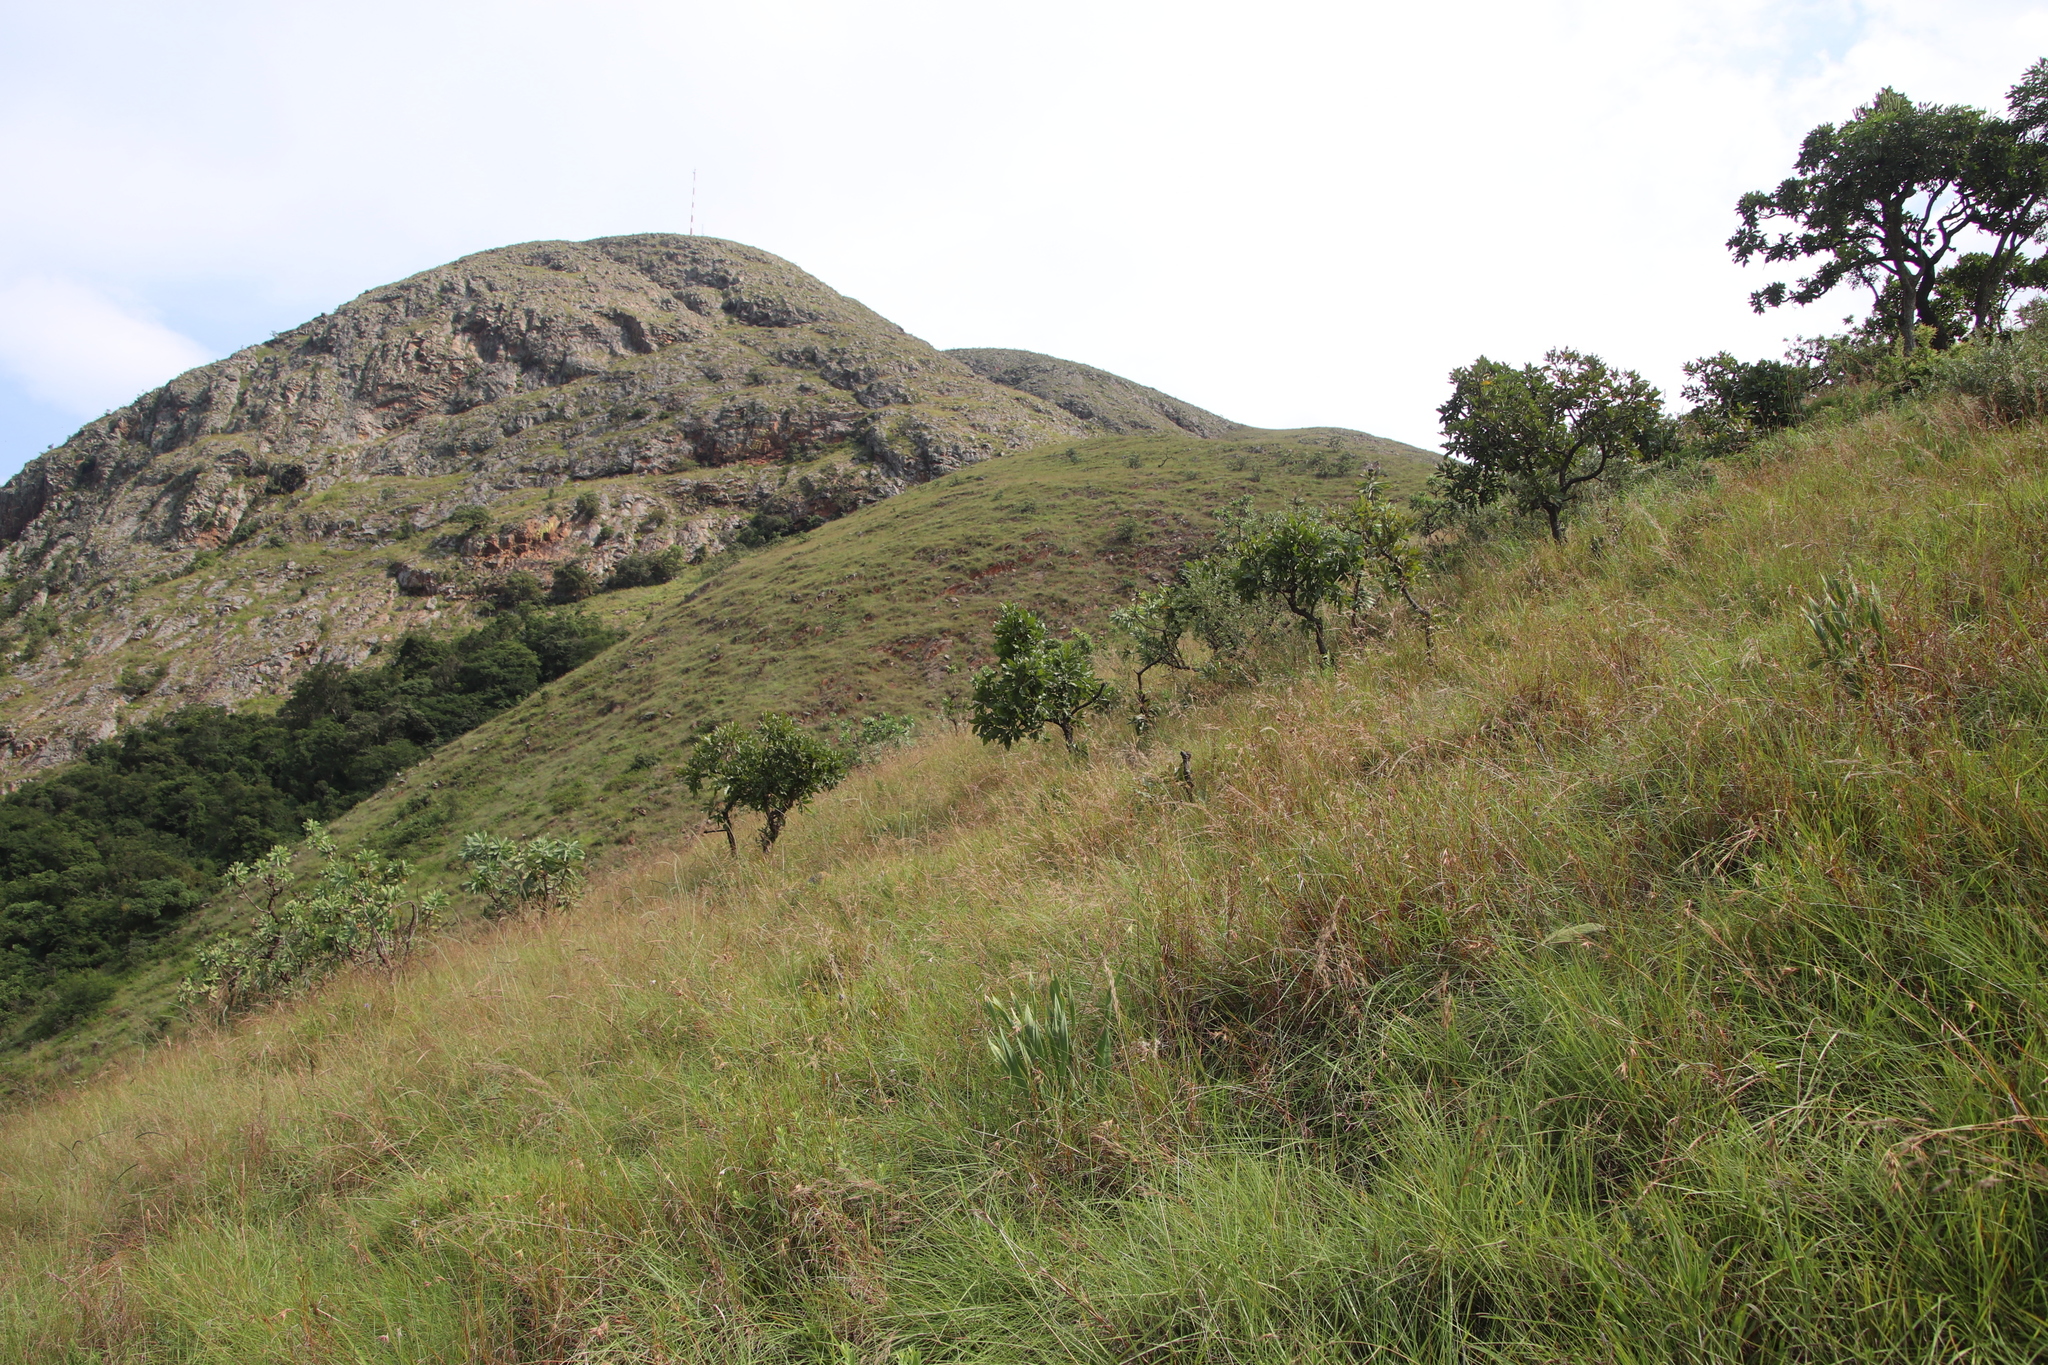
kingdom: Plantae
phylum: Tracheophyta
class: Magnoliopsida
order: Proteales
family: Proteaceae
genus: Faurea
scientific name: Faurea rochetiana
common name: Broad-leaved beech
